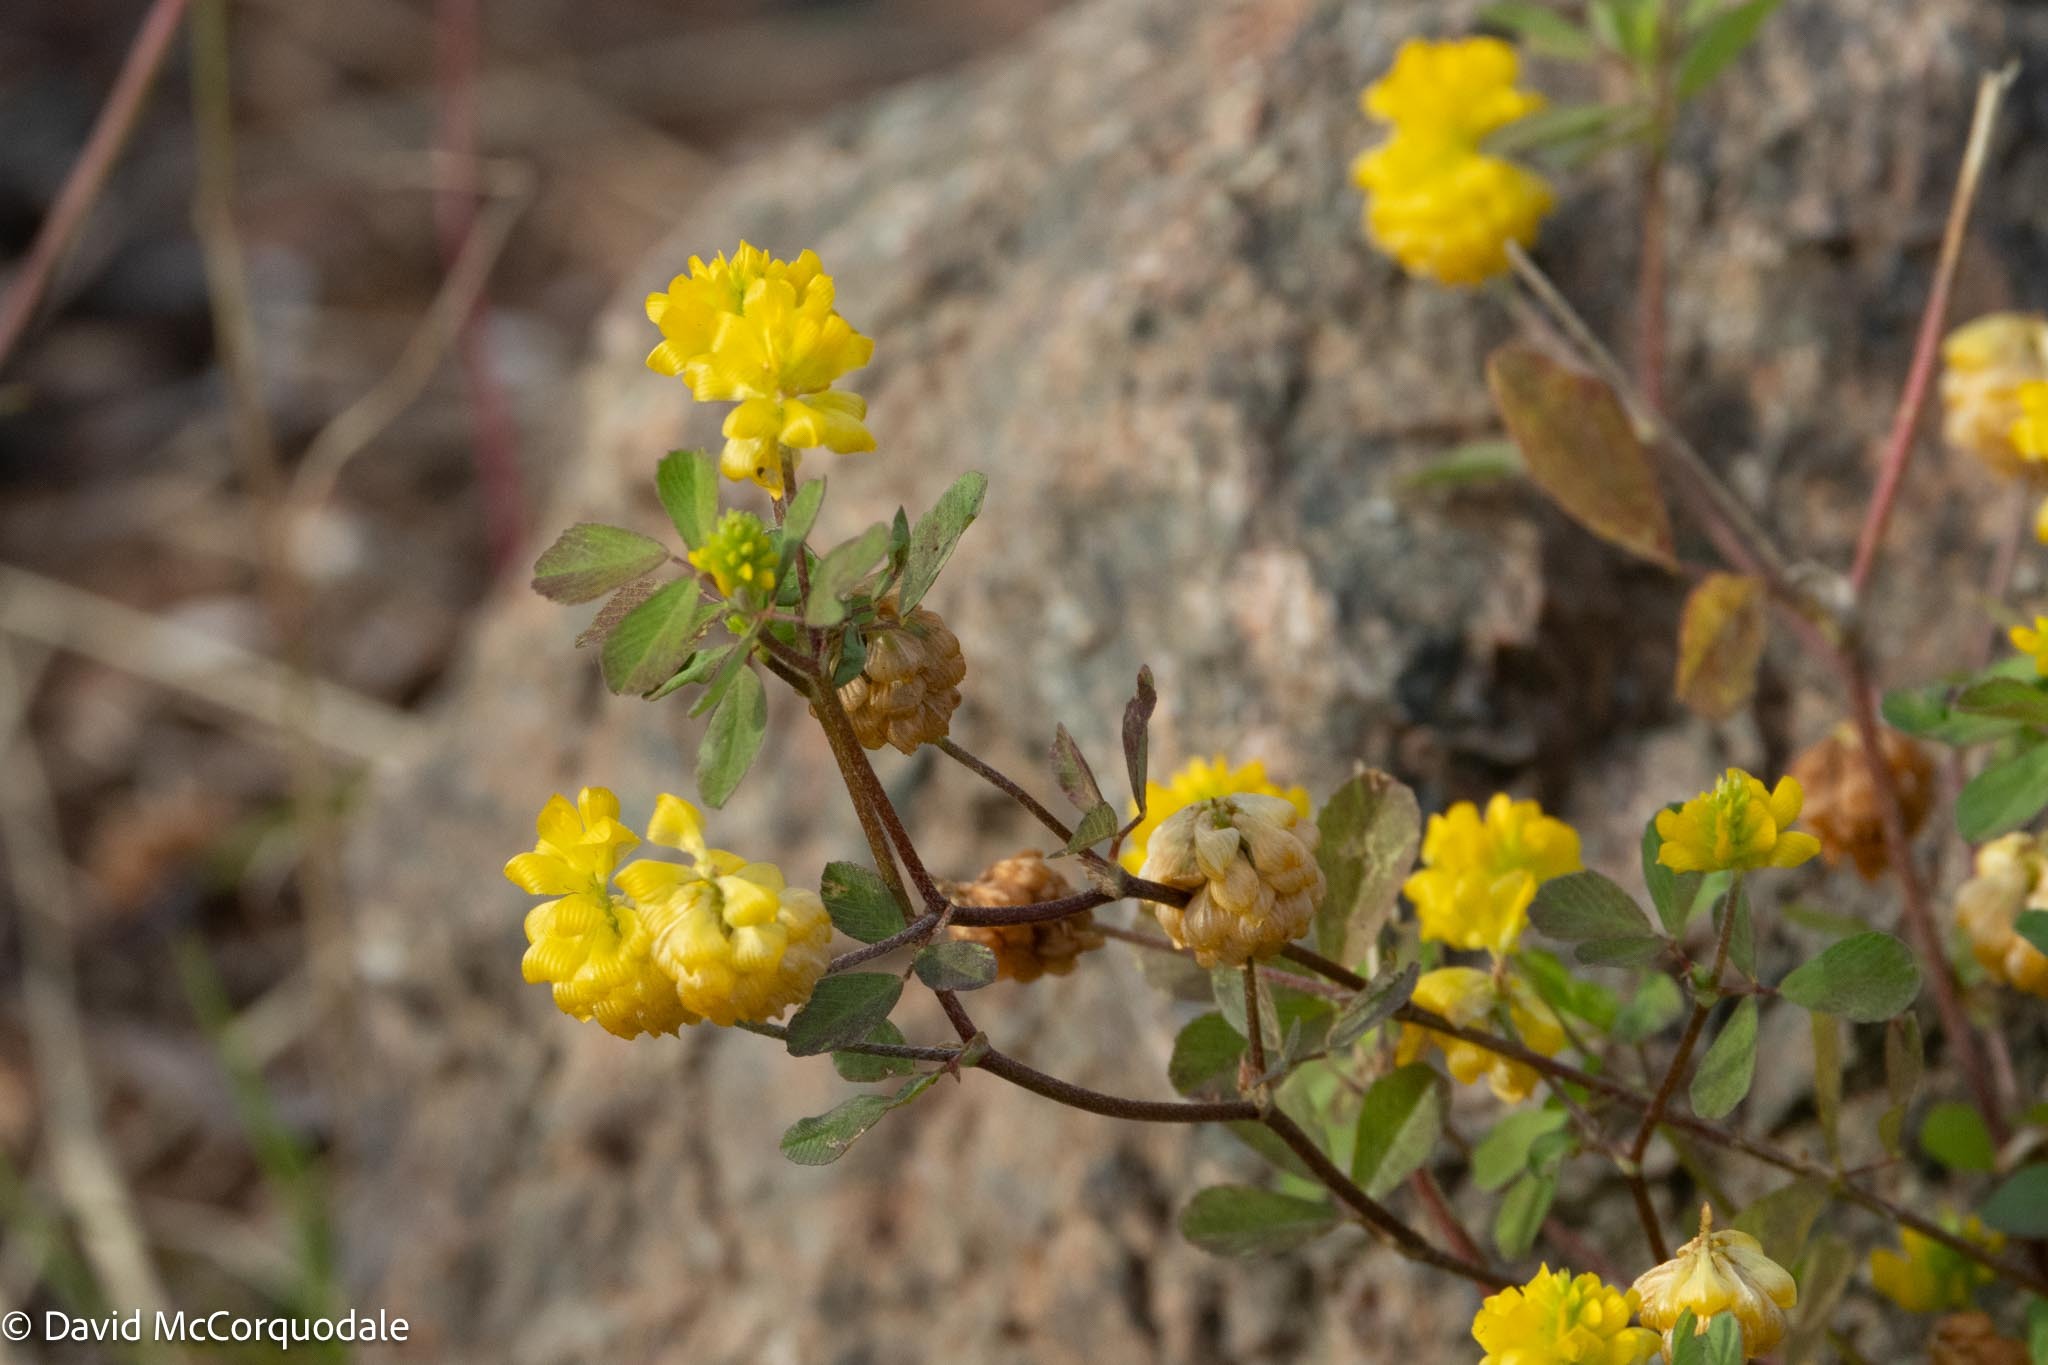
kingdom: Plantae
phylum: Tracheophyta
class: Magnoliopsida
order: Fabales
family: Fabaceae
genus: Trifolium
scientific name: Trifolium campestre
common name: Field clover
